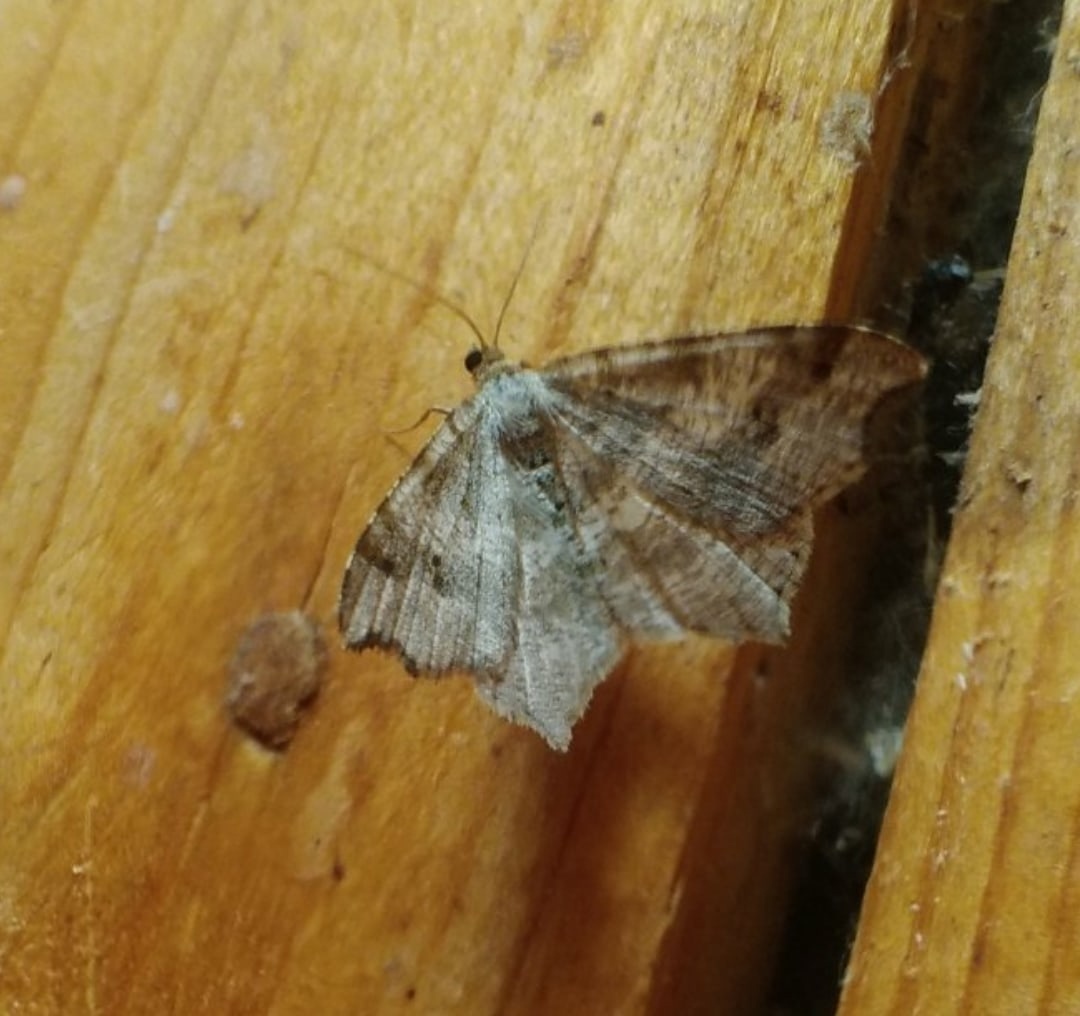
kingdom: Animalia
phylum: Arthropoda
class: Insecta
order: Lepidoptera
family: Geometridae
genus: Macaria
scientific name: Macaria alternata
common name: Sharp-angled peacock
